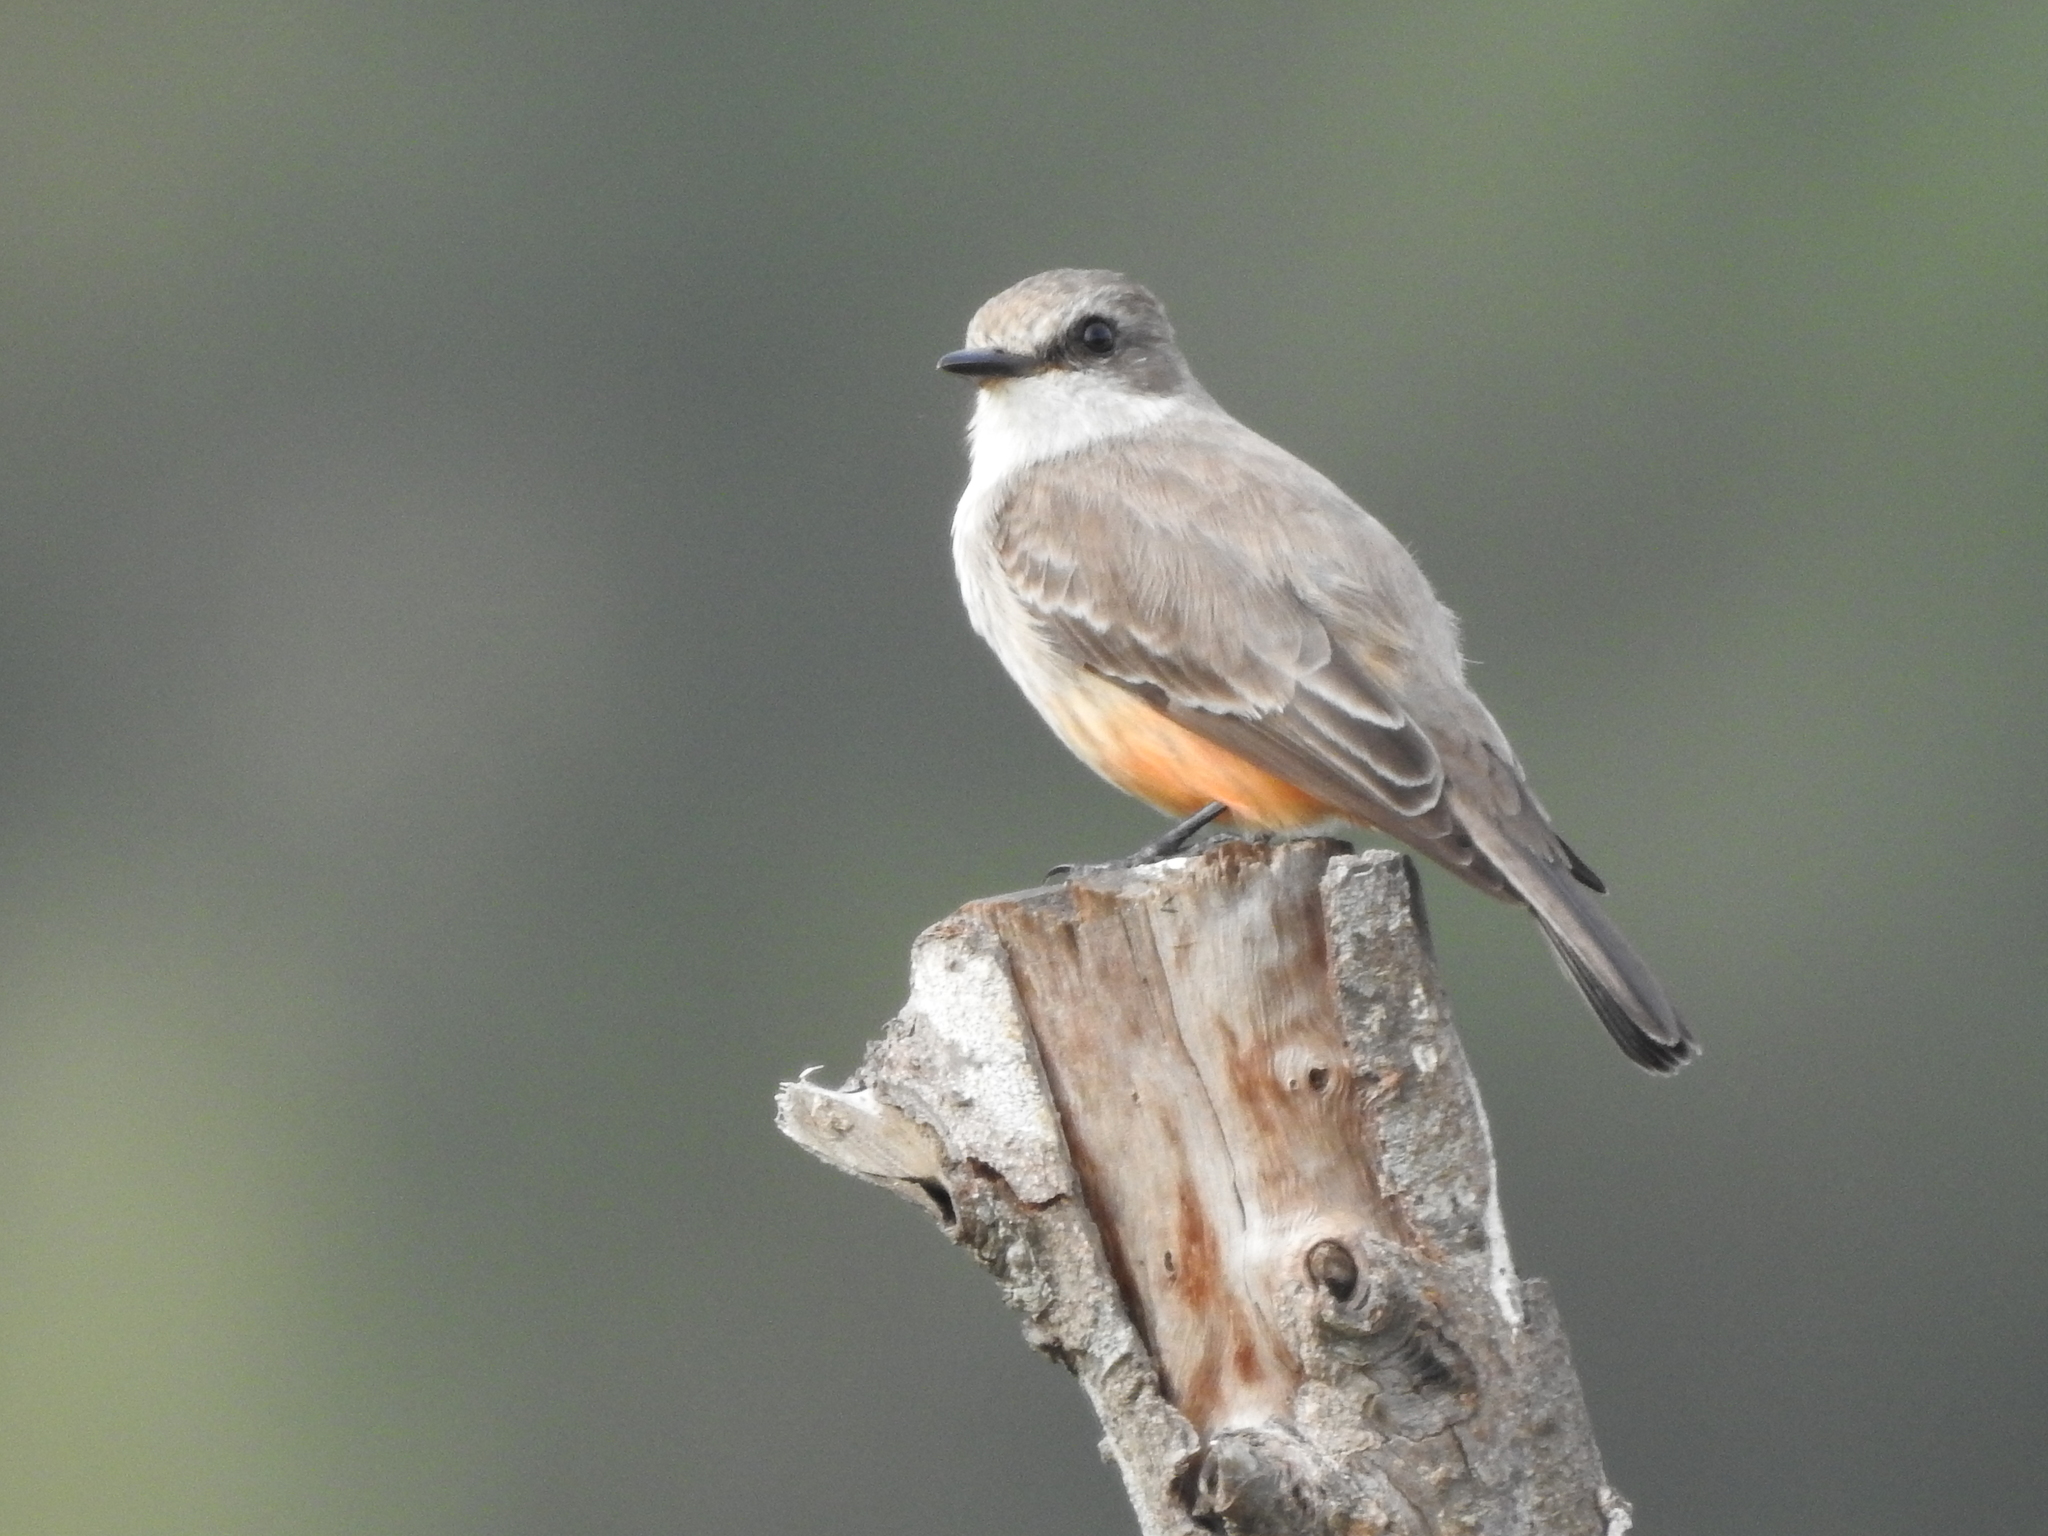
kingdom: Animalia
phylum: Chordata
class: Aves
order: Passeriformes
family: Tyrannidae
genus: Pyrocephalus
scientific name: Pyrocephalus rubinus
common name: Vermilion flycatcher
